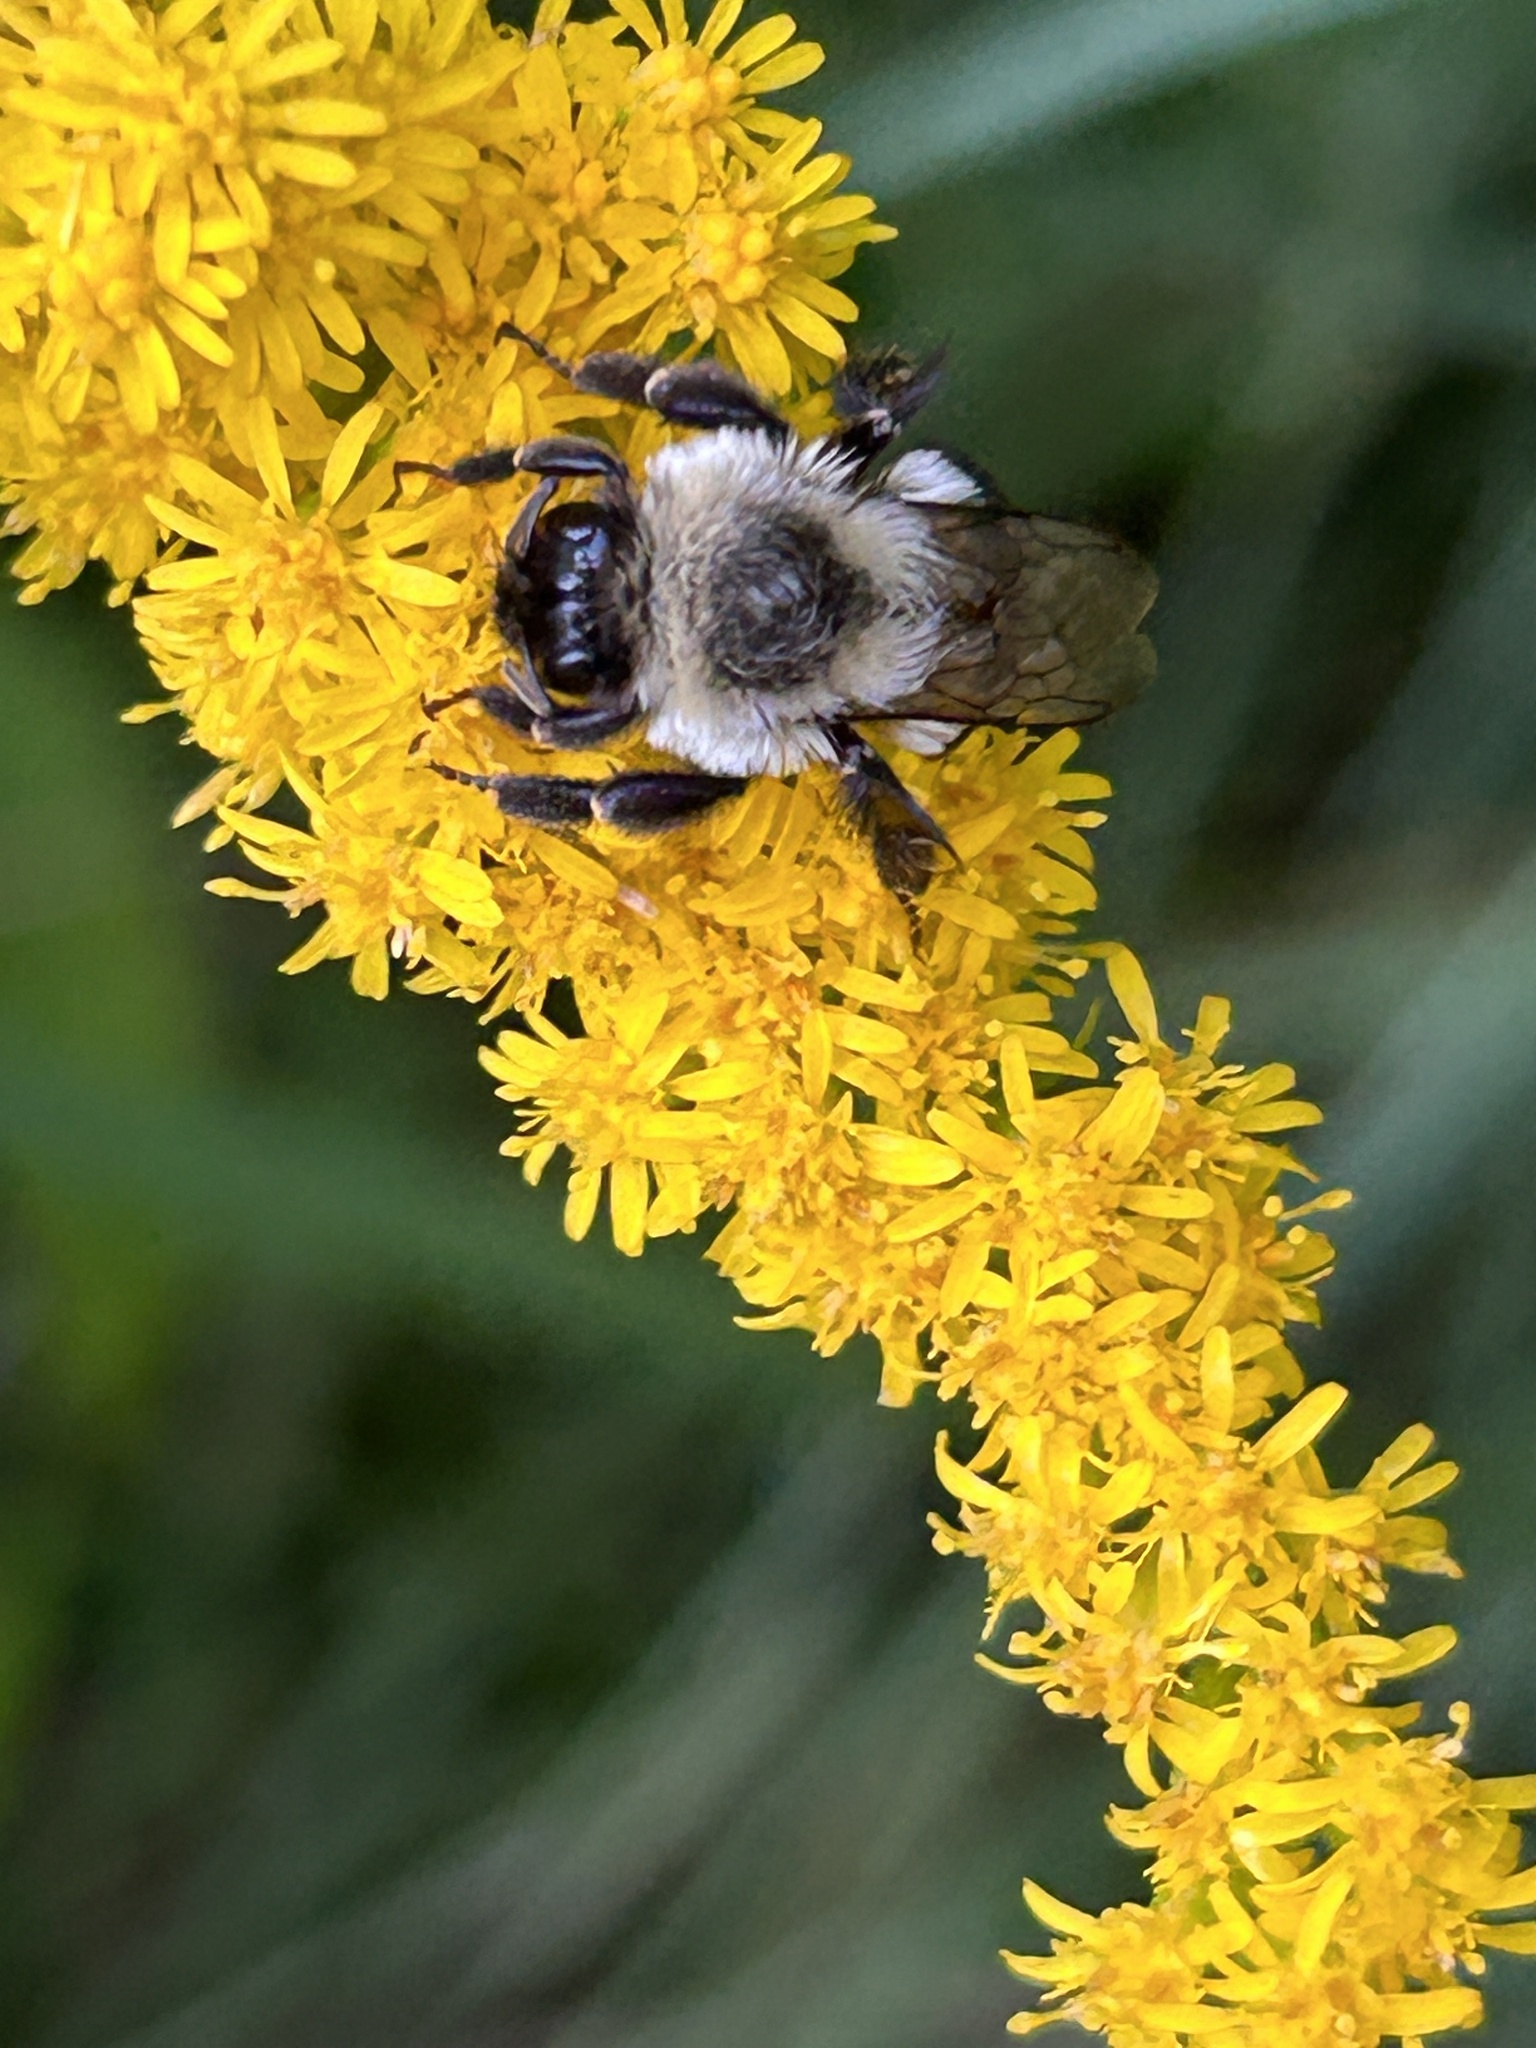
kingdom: Animalia
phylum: Arthropoda
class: Insecta
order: Hymenoptera
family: Apidae
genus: Bombus
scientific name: Bombus impatiens
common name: Common eastern bumble bee
